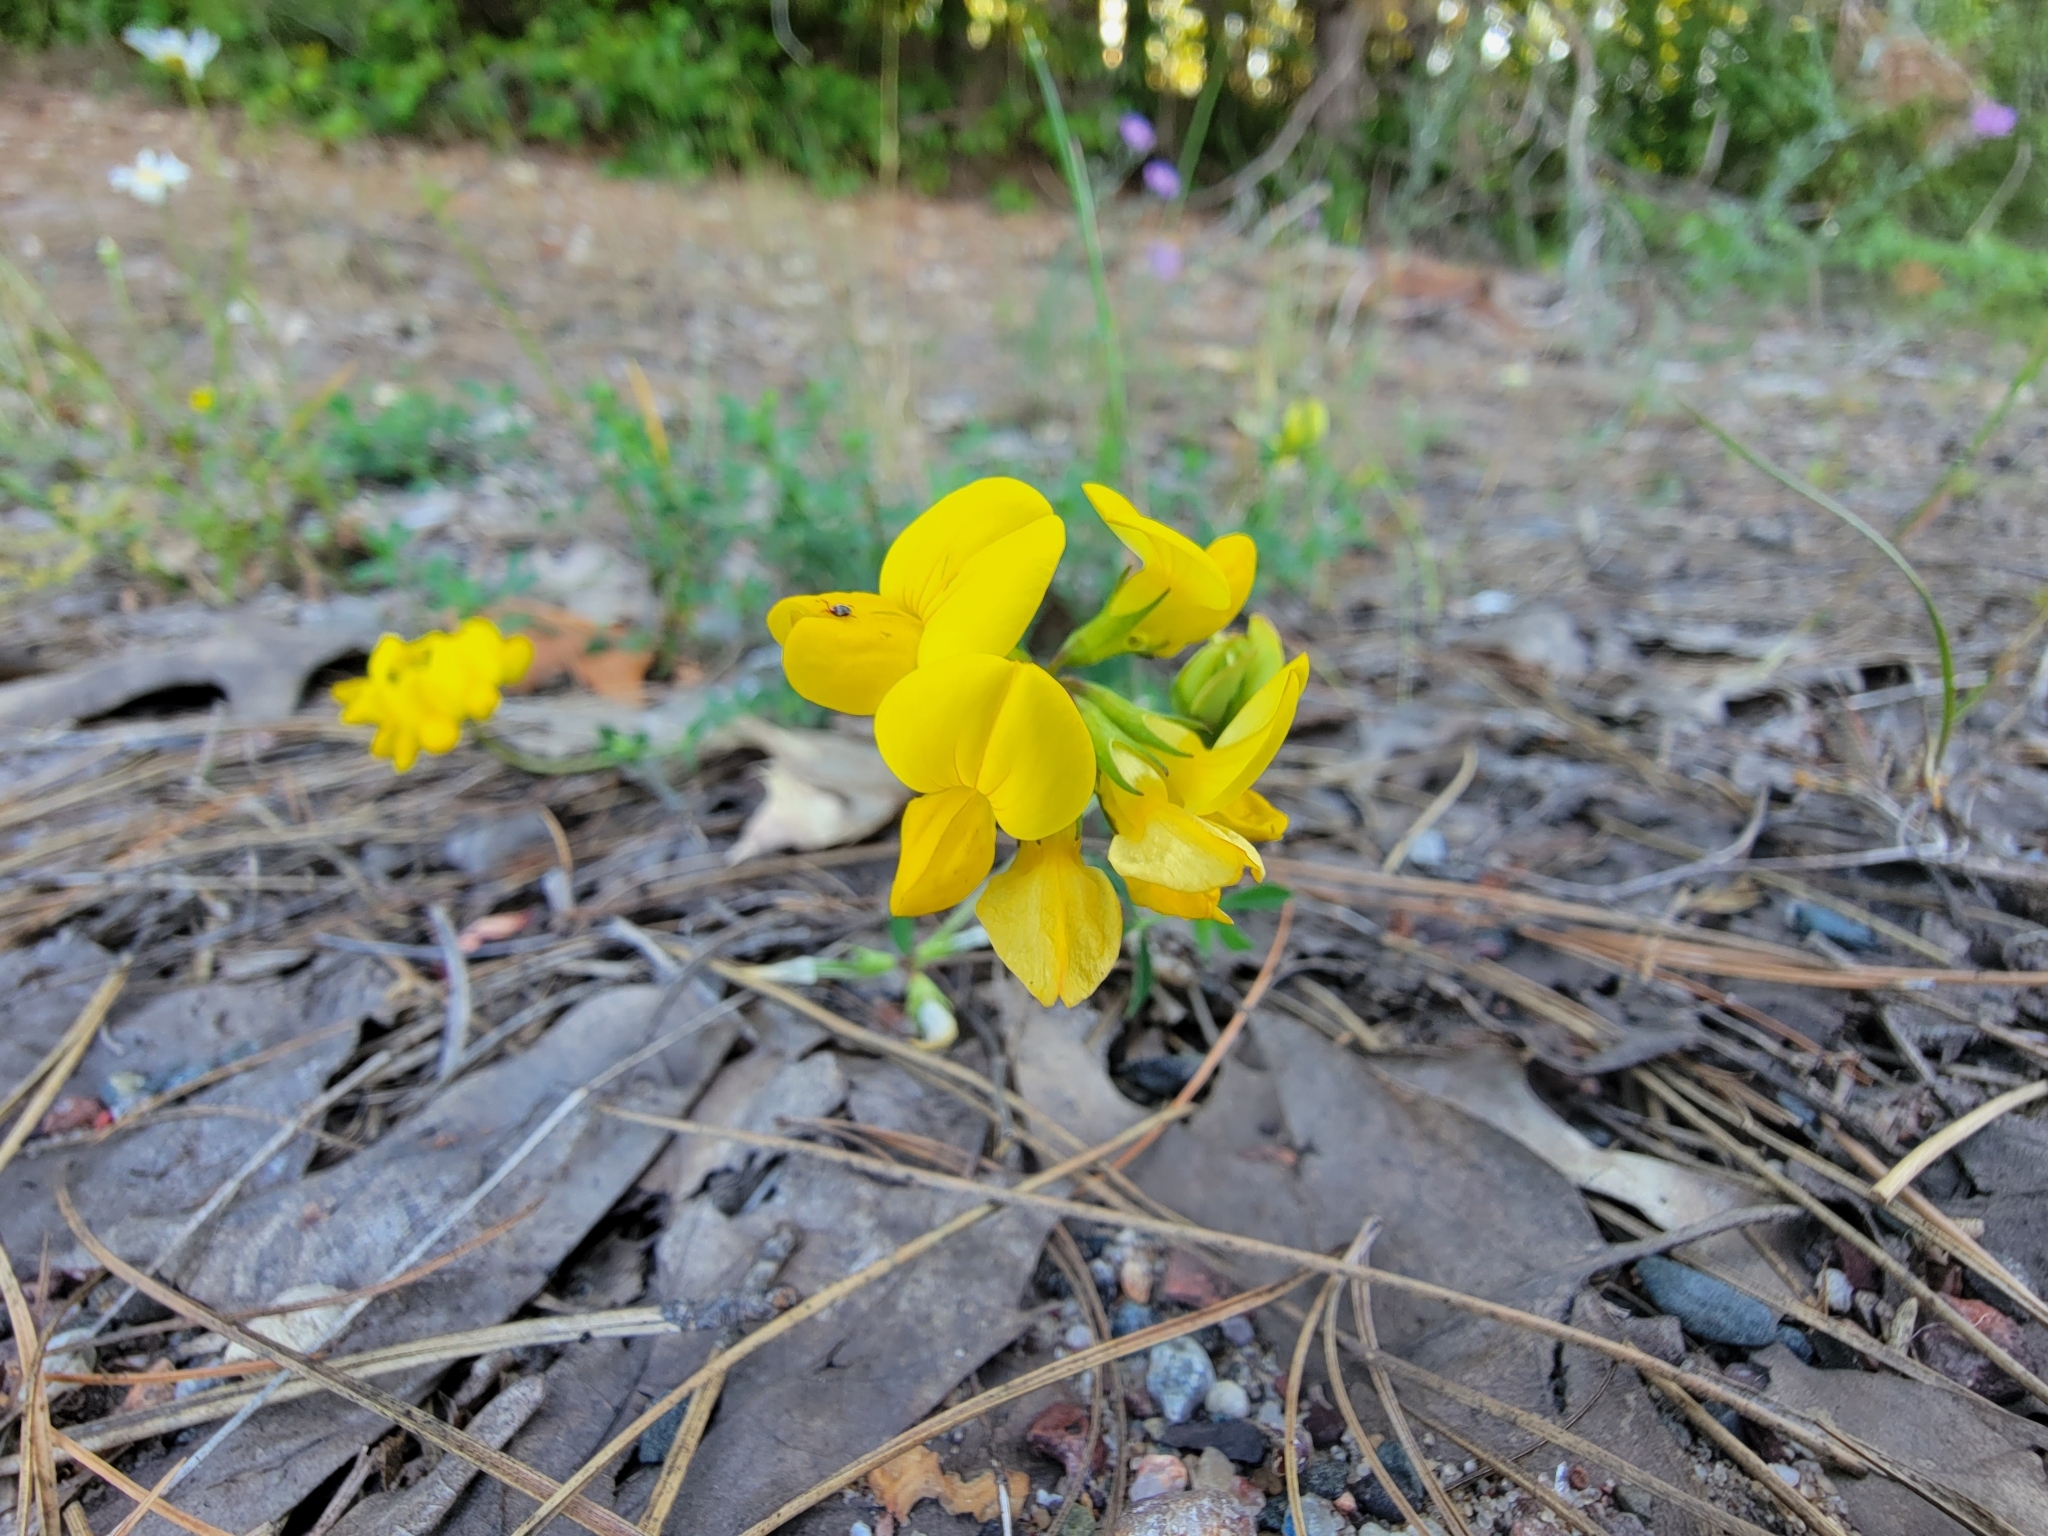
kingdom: Plantae
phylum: Tracheophyta
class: Magnoliopsida
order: Fabales
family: Fabaceae
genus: Lotus
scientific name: Lotus corniculatus
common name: Common bird's-foot-trefoil
